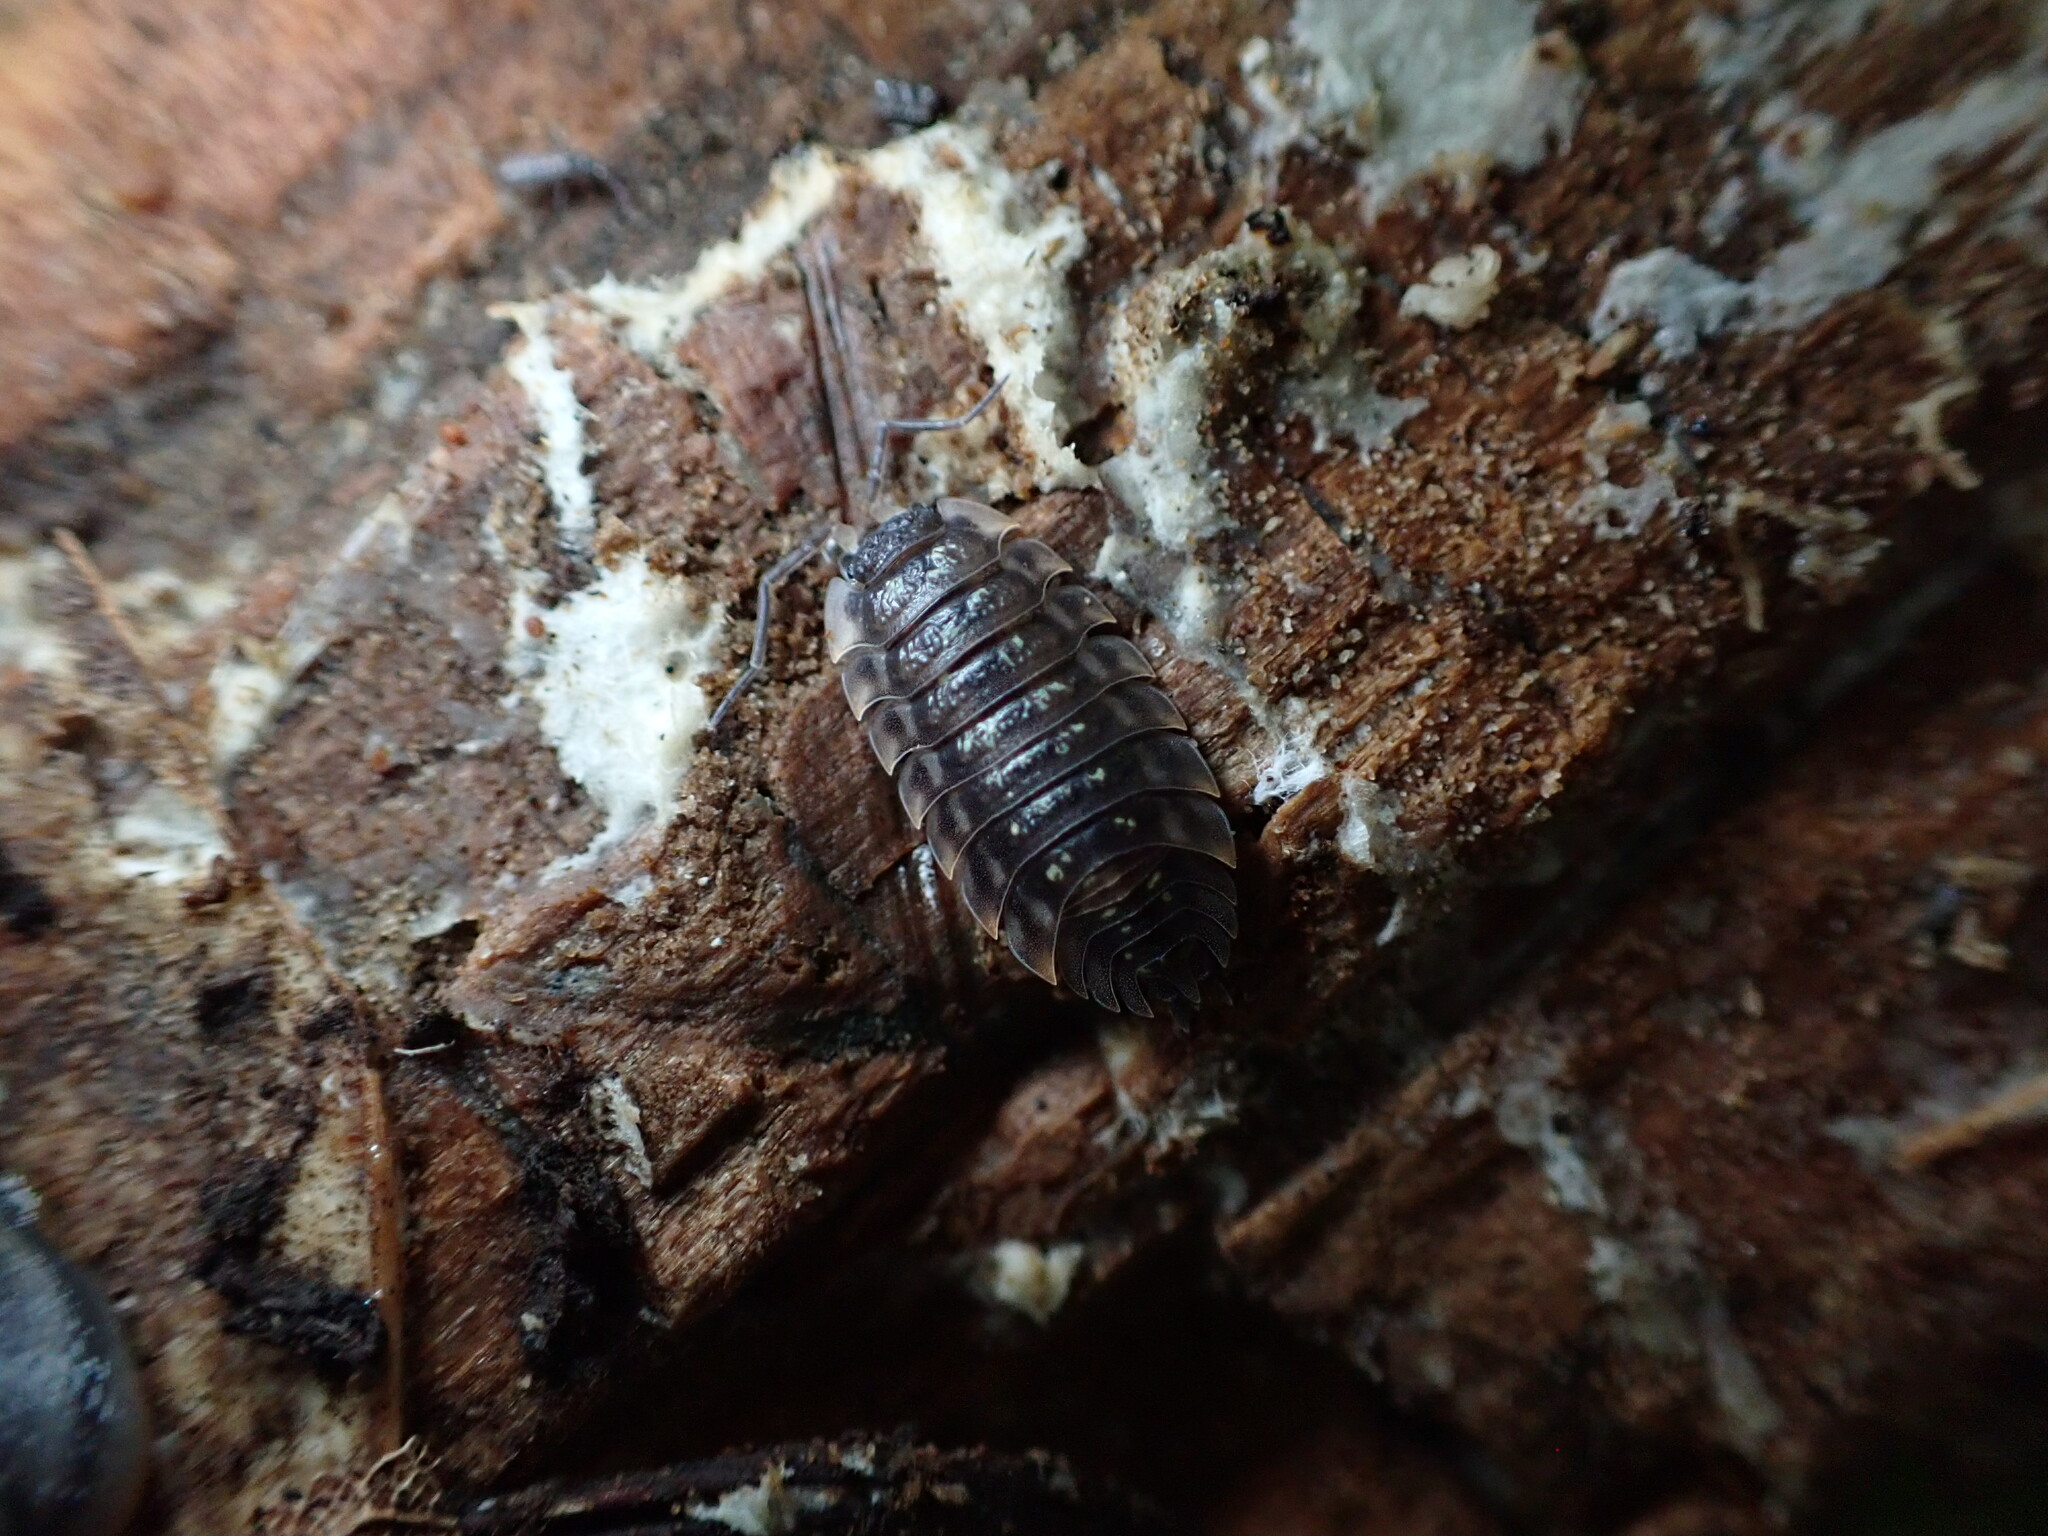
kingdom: Animalia
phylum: Arthropoda
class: Malacostraca
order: Isopoda
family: Oniscidae
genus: Oniscus
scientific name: Oniscus asellus
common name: Common shiny woodlouse
